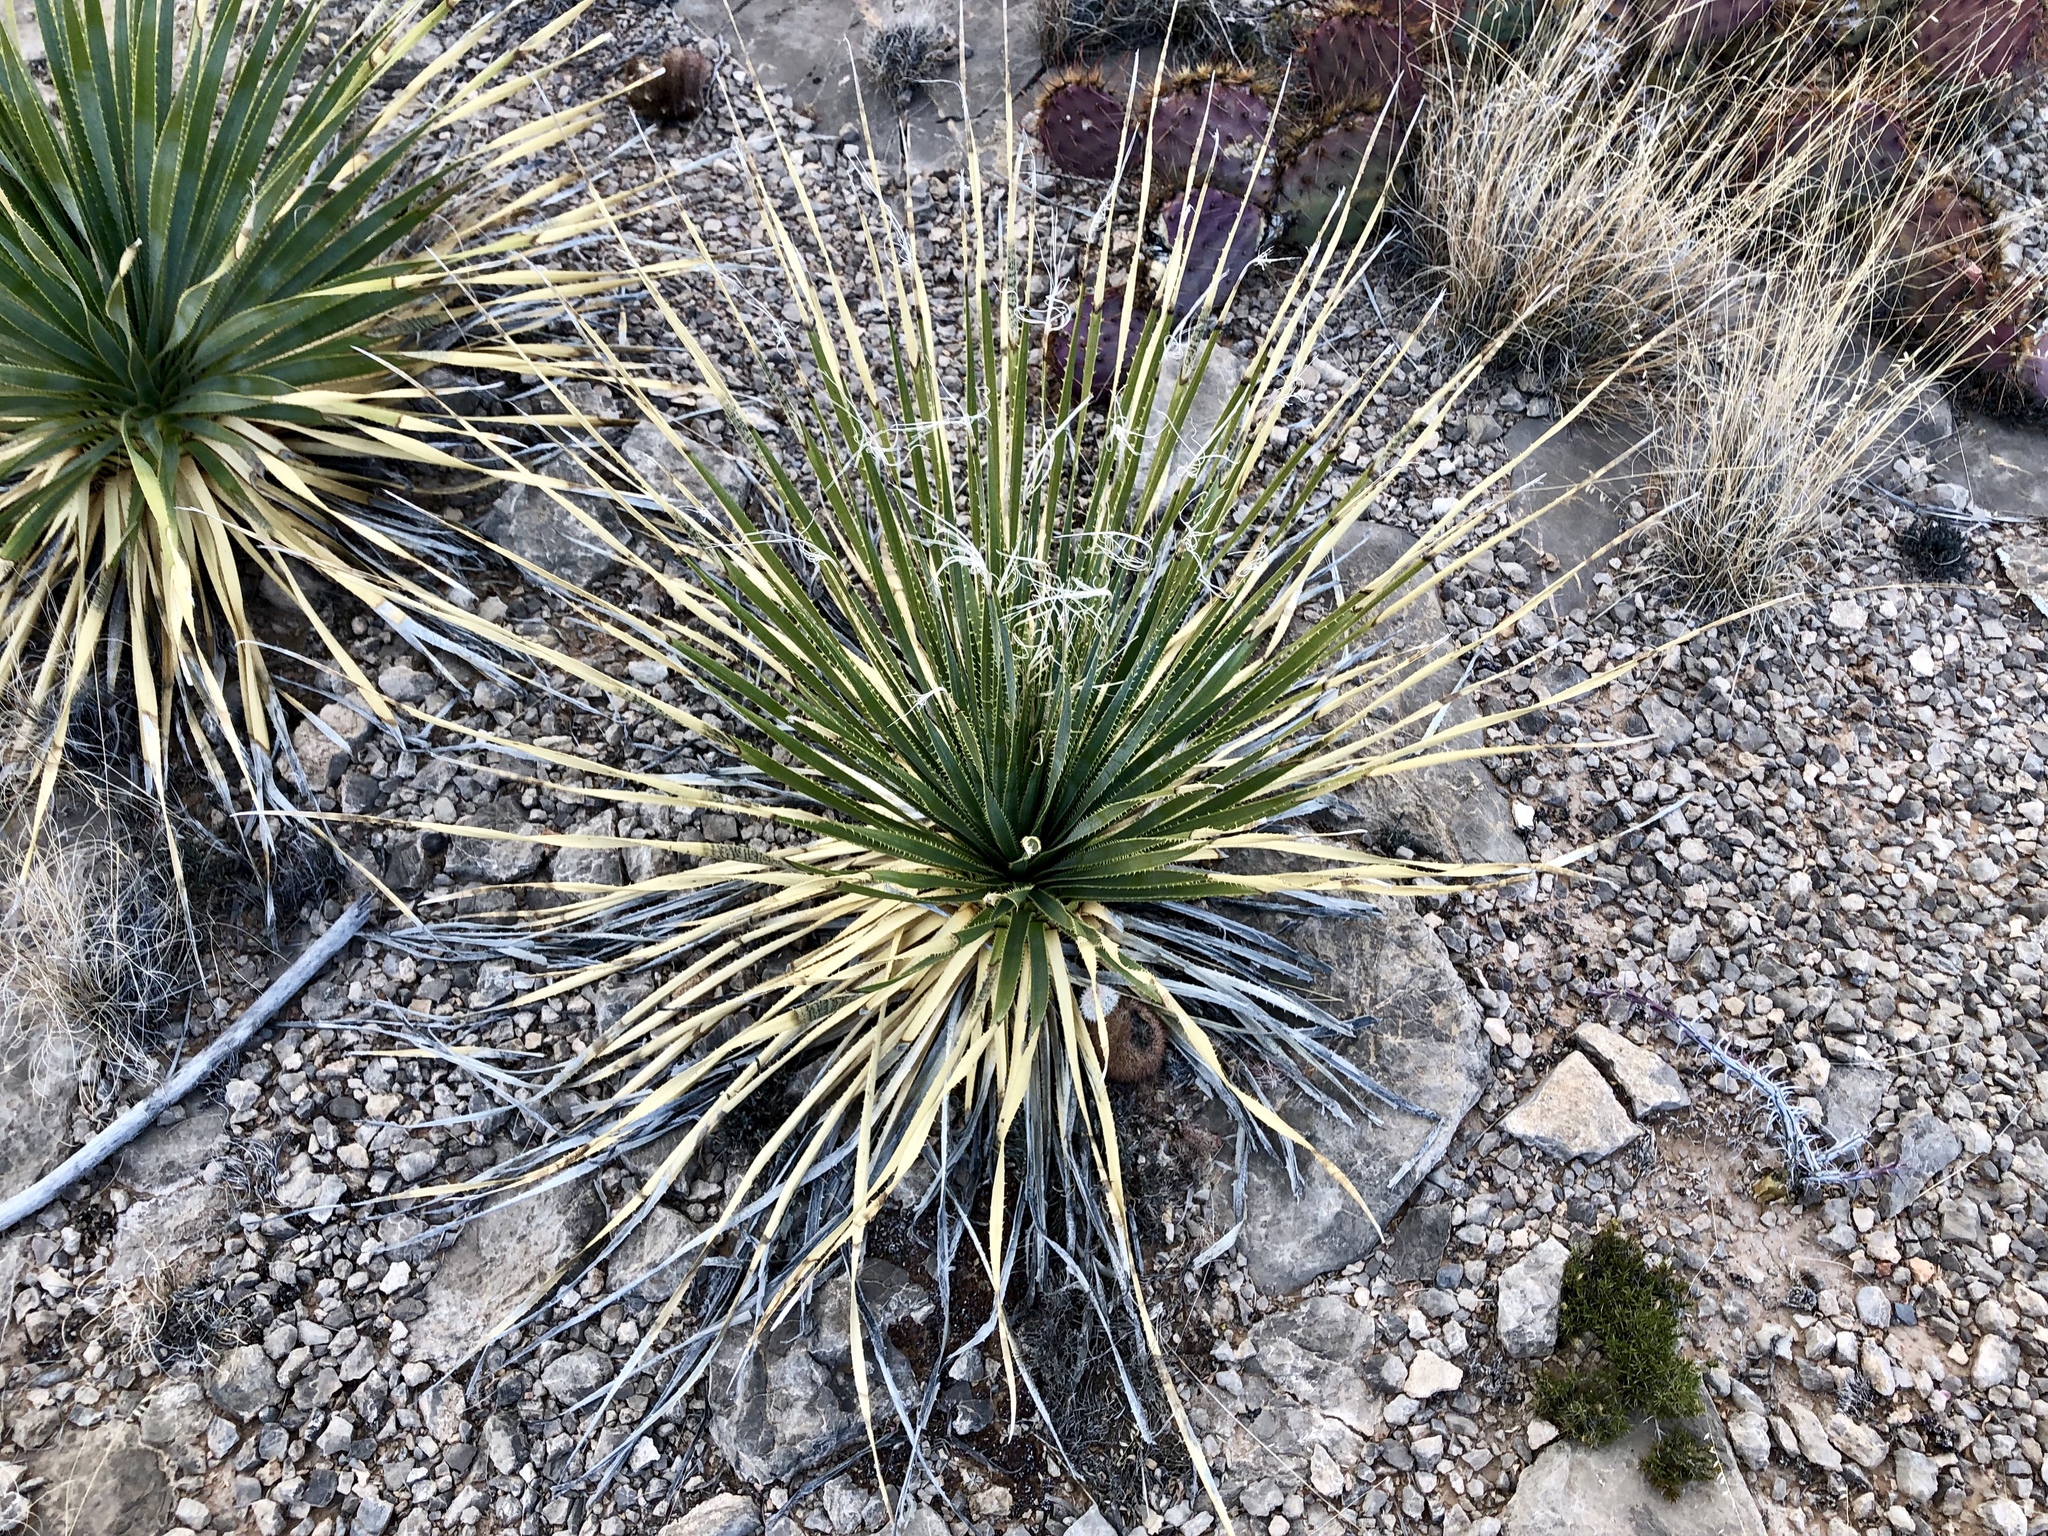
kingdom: Plantae
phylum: Tracheophyta
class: Liliopsida
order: Asparagales
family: Asparagaceae
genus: Dasylirion
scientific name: Dasylirion wheeleri
